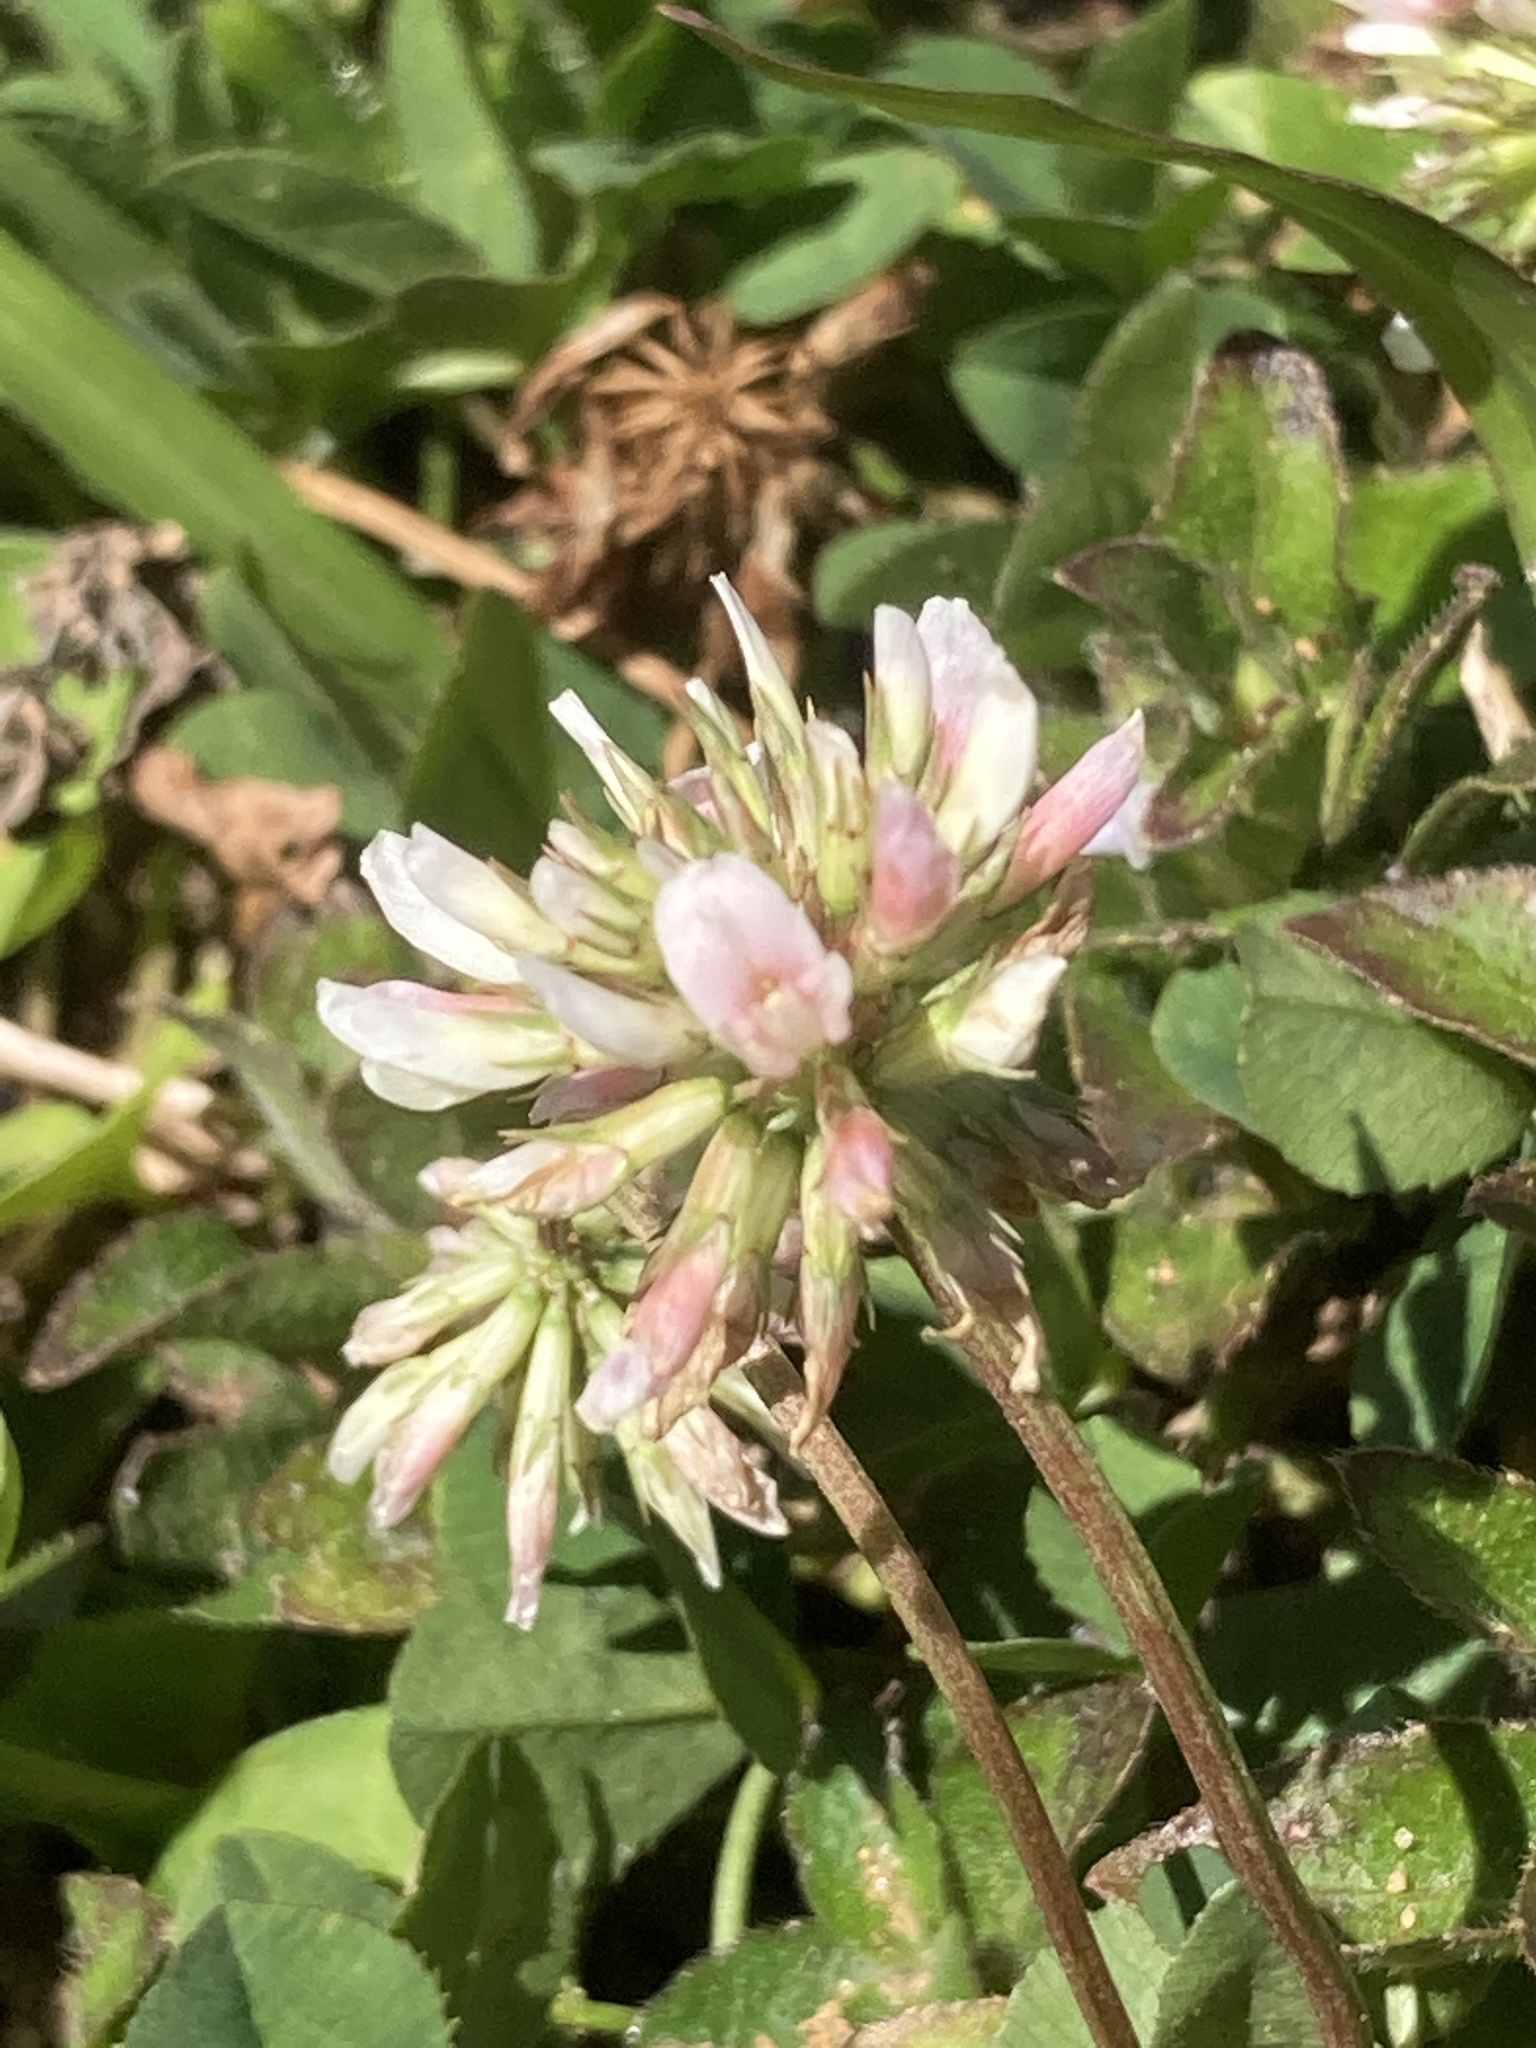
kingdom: Plantae
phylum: Tracheophyta
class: Magnoliopsida
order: Fabales
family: Fabaceae
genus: Trifolium
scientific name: Trifolium repens
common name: White clover
